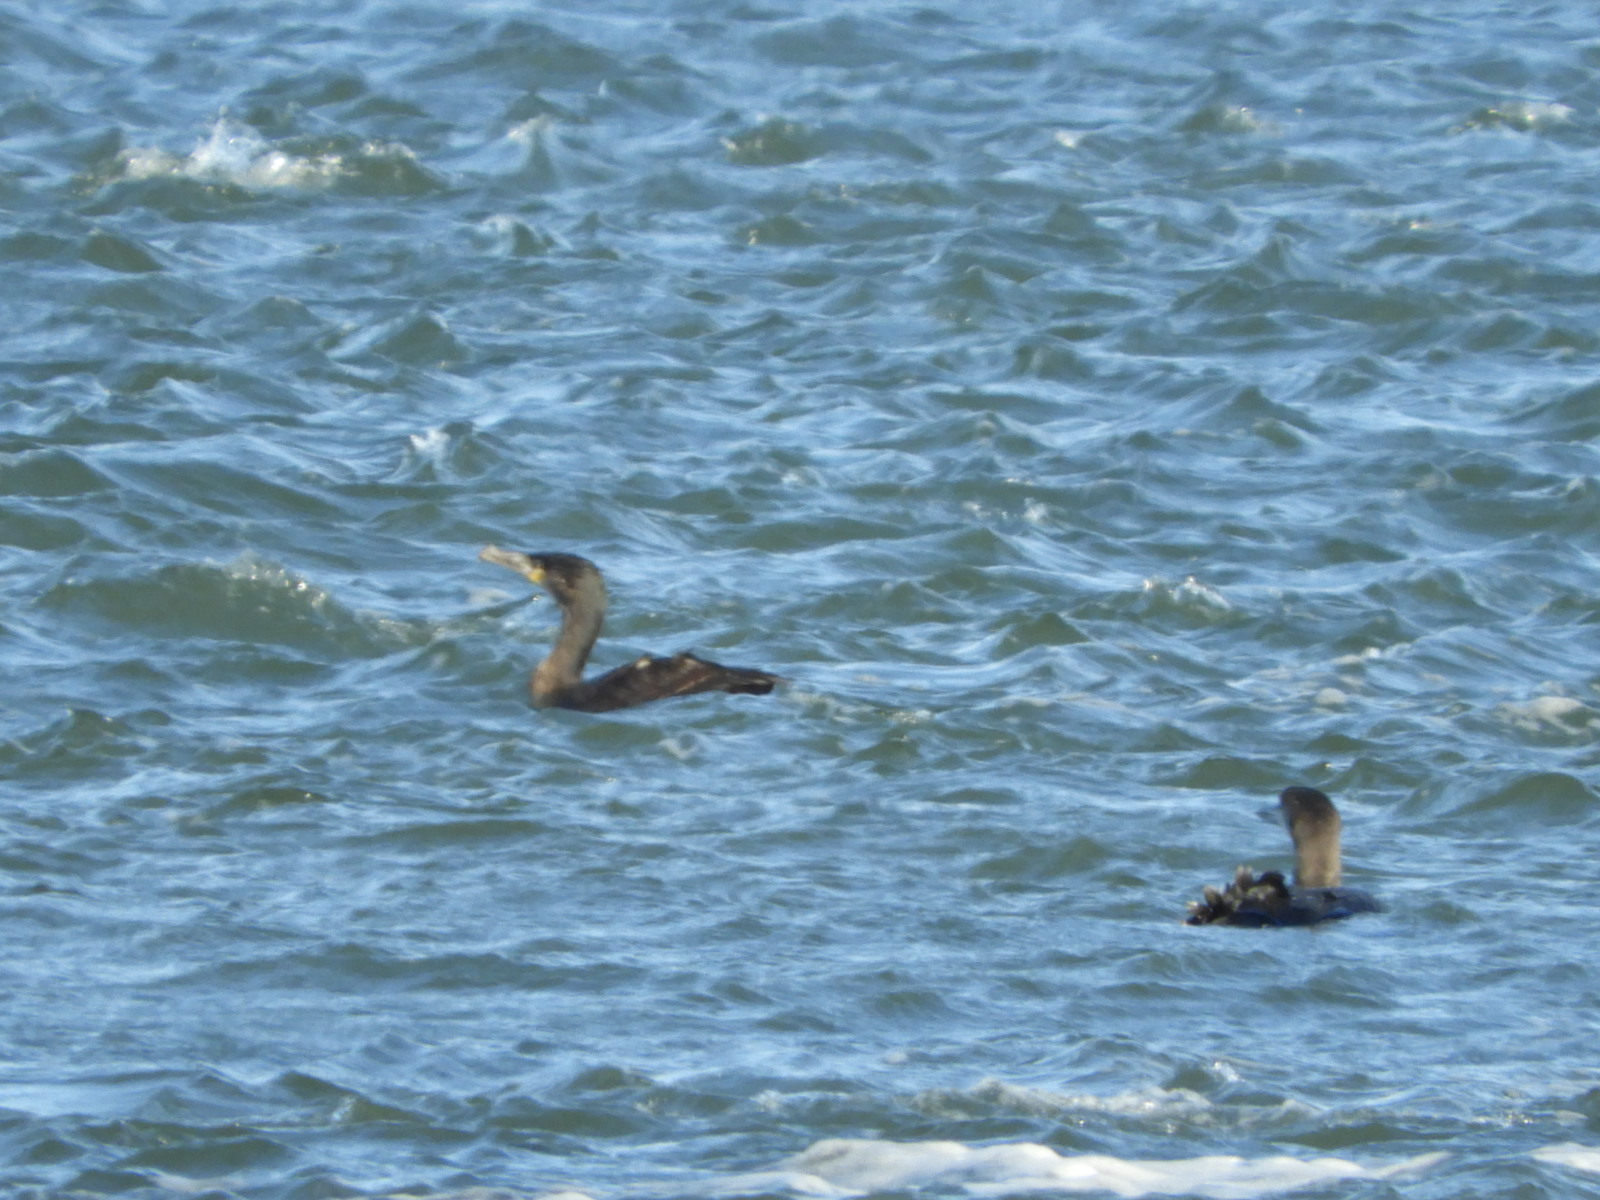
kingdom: Animalia
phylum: Chordata
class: Aves
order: Suliformes
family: Phalacrocoracidae
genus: Phalacrocorax
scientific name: Phalacrocorax carbo
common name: Great cormorant
